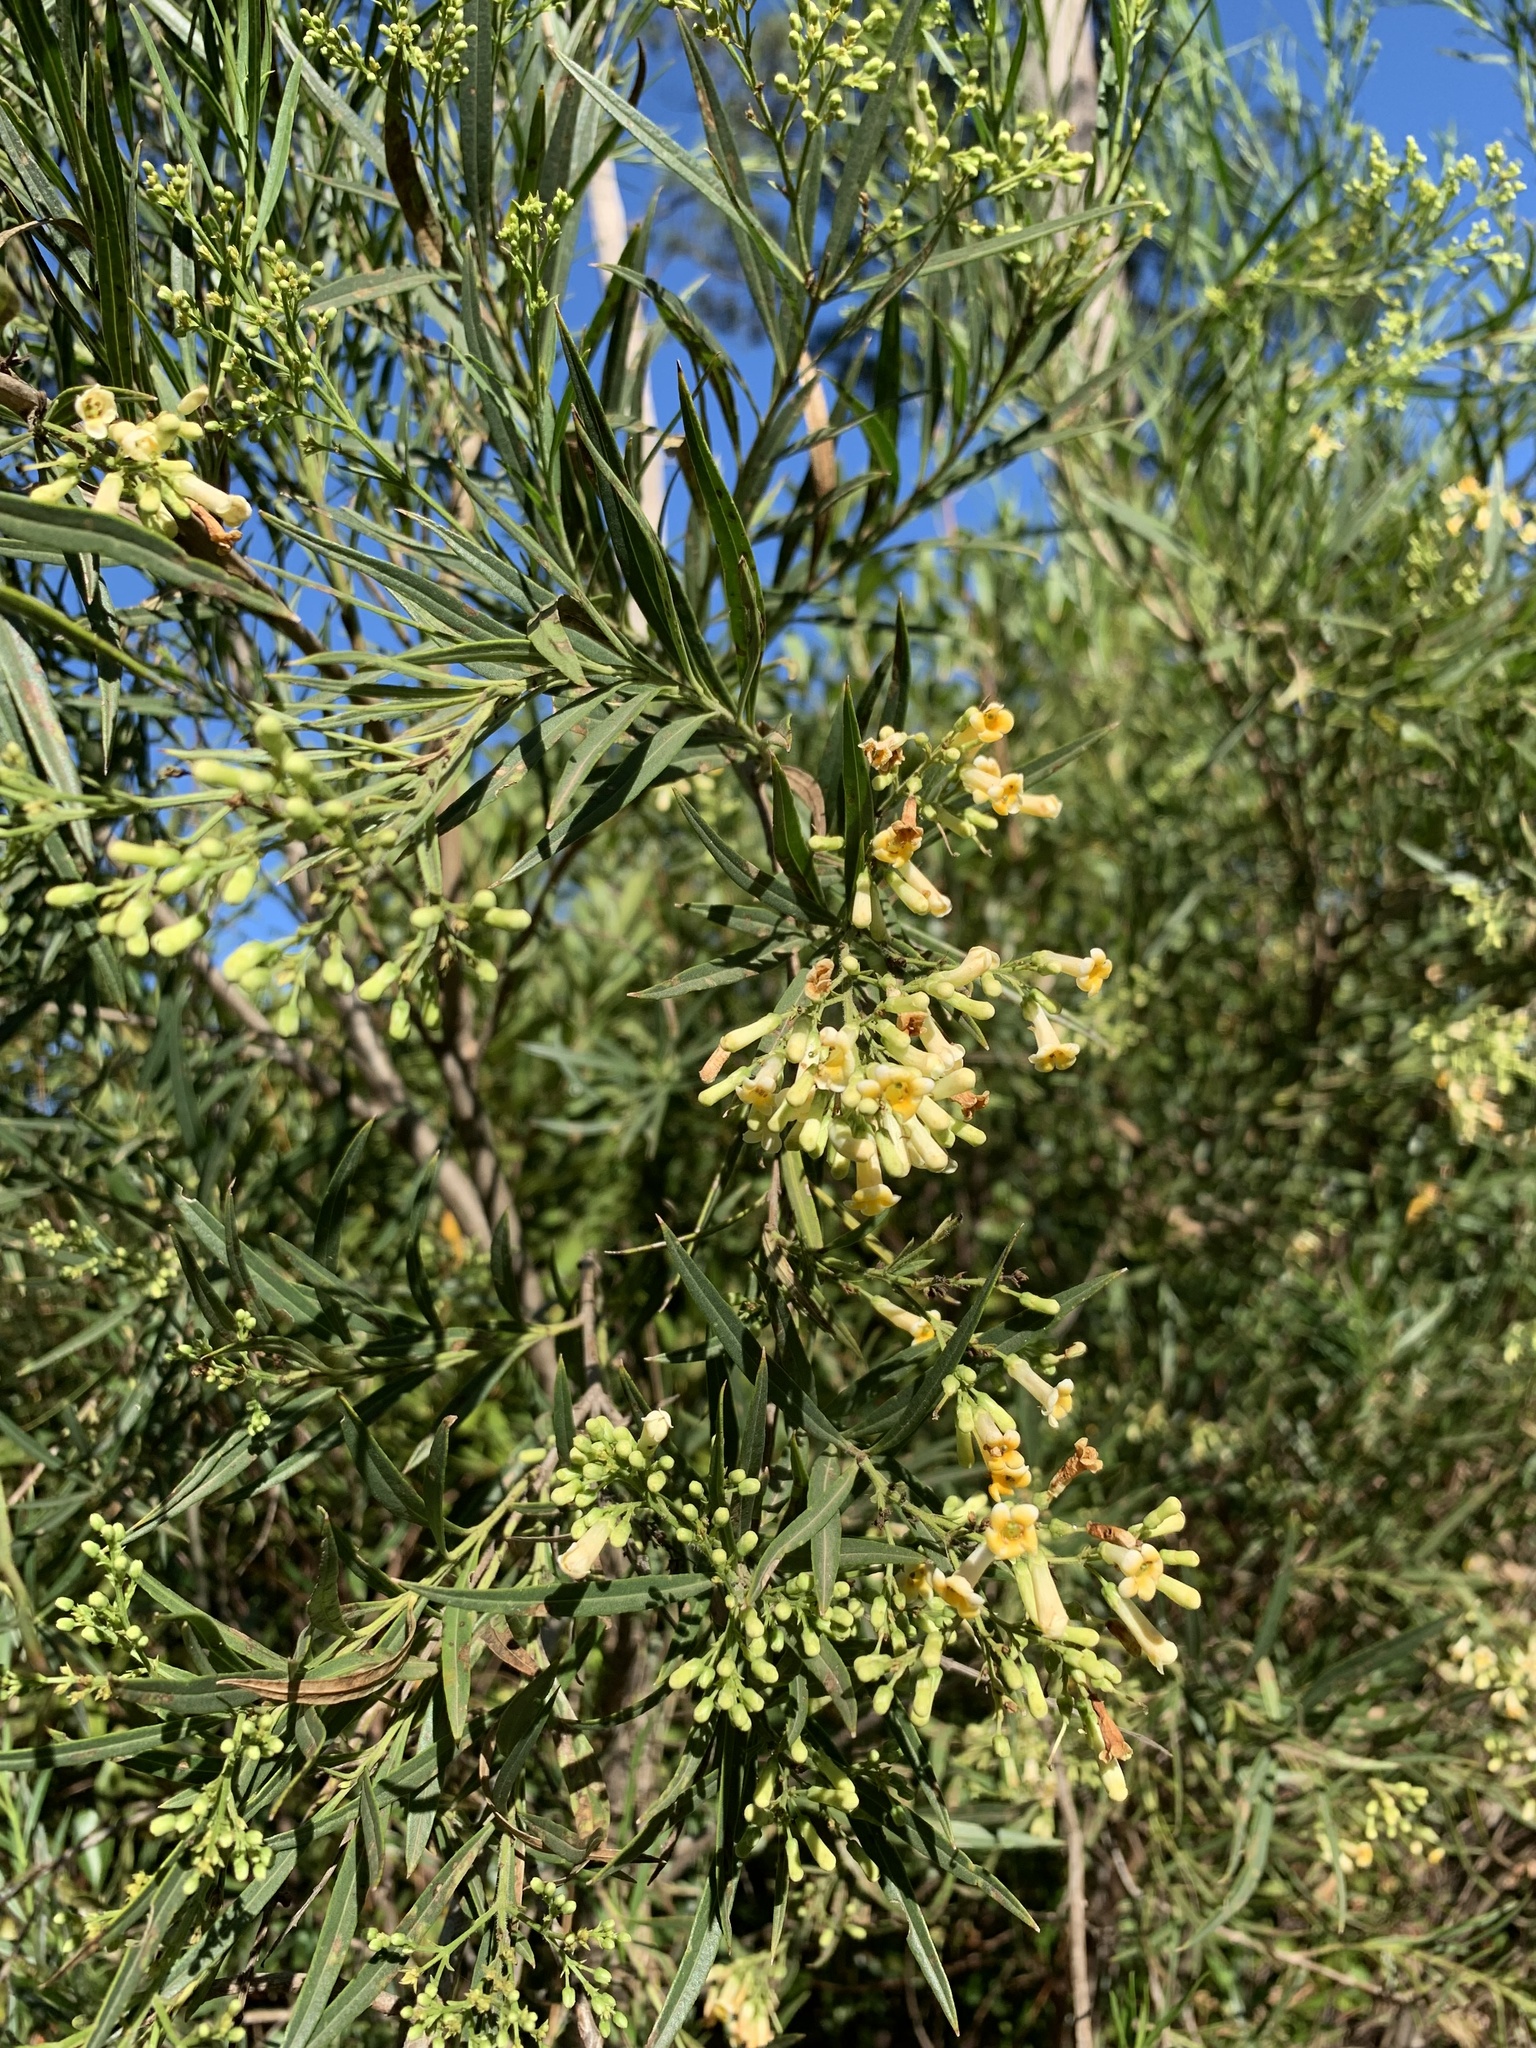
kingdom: Plantae
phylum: Tracheophyta
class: Magnoliopsida
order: Lamiales
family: Scrophulariaceae
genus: Freylinia
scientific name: Freylinia lanceolata
